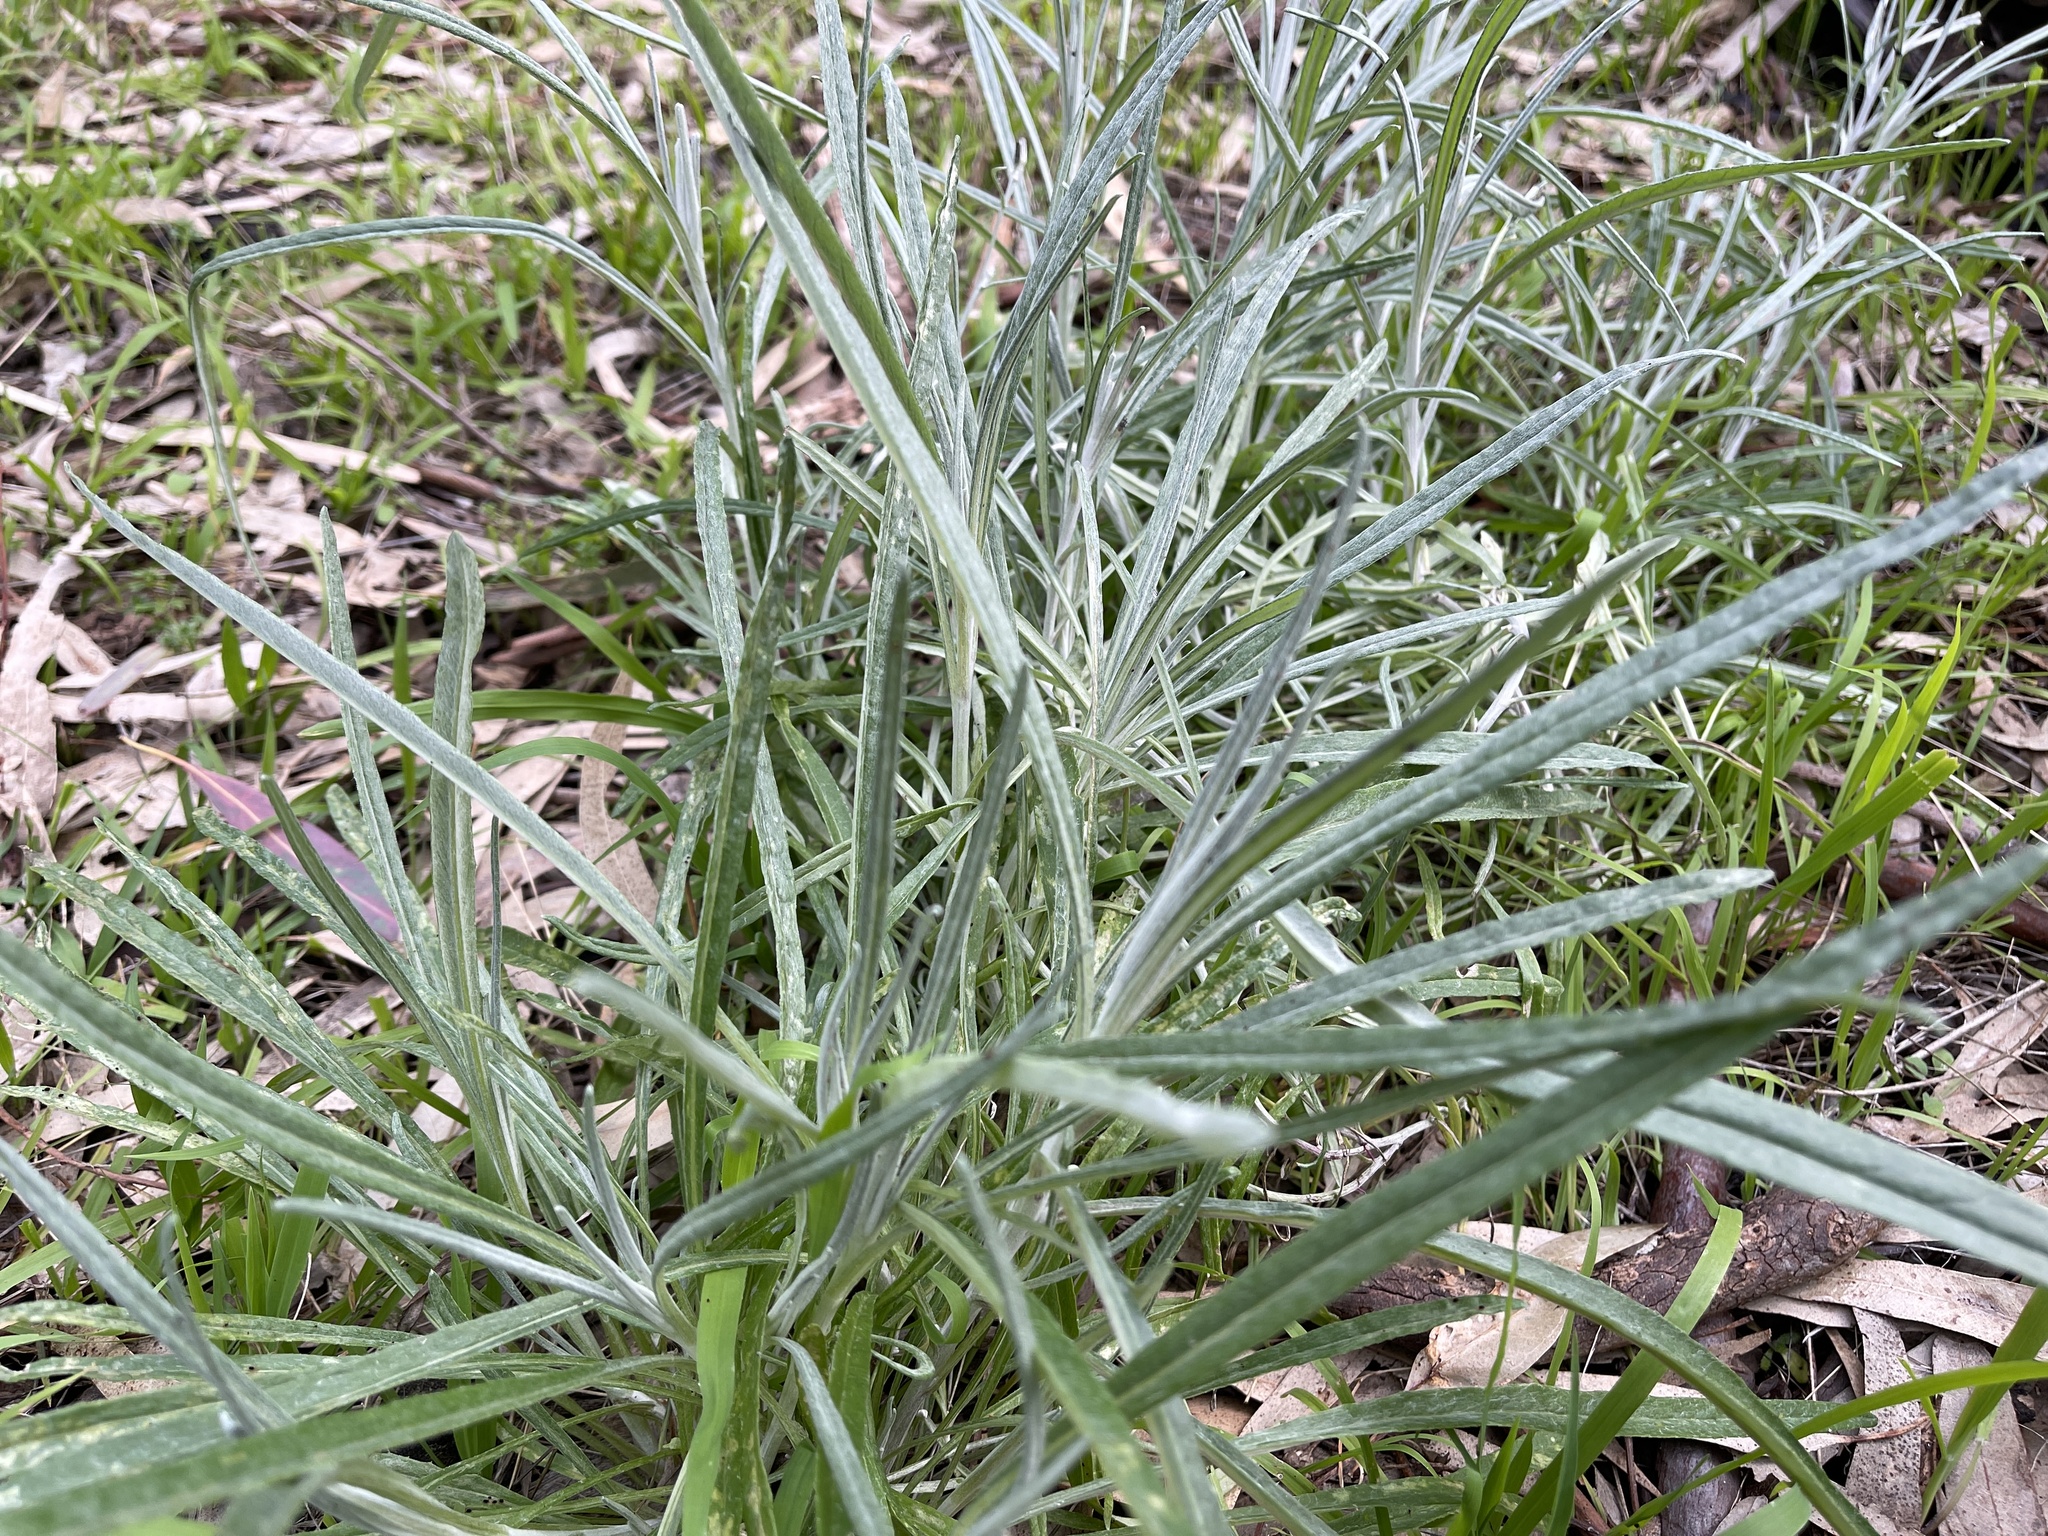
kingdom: Plantae
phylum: Tracheophyta
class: Magnoliopsida
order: Asterales
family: Asteraceae
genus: Senecio
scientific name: Senecio quadridentatus
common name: Cotton fireweed
